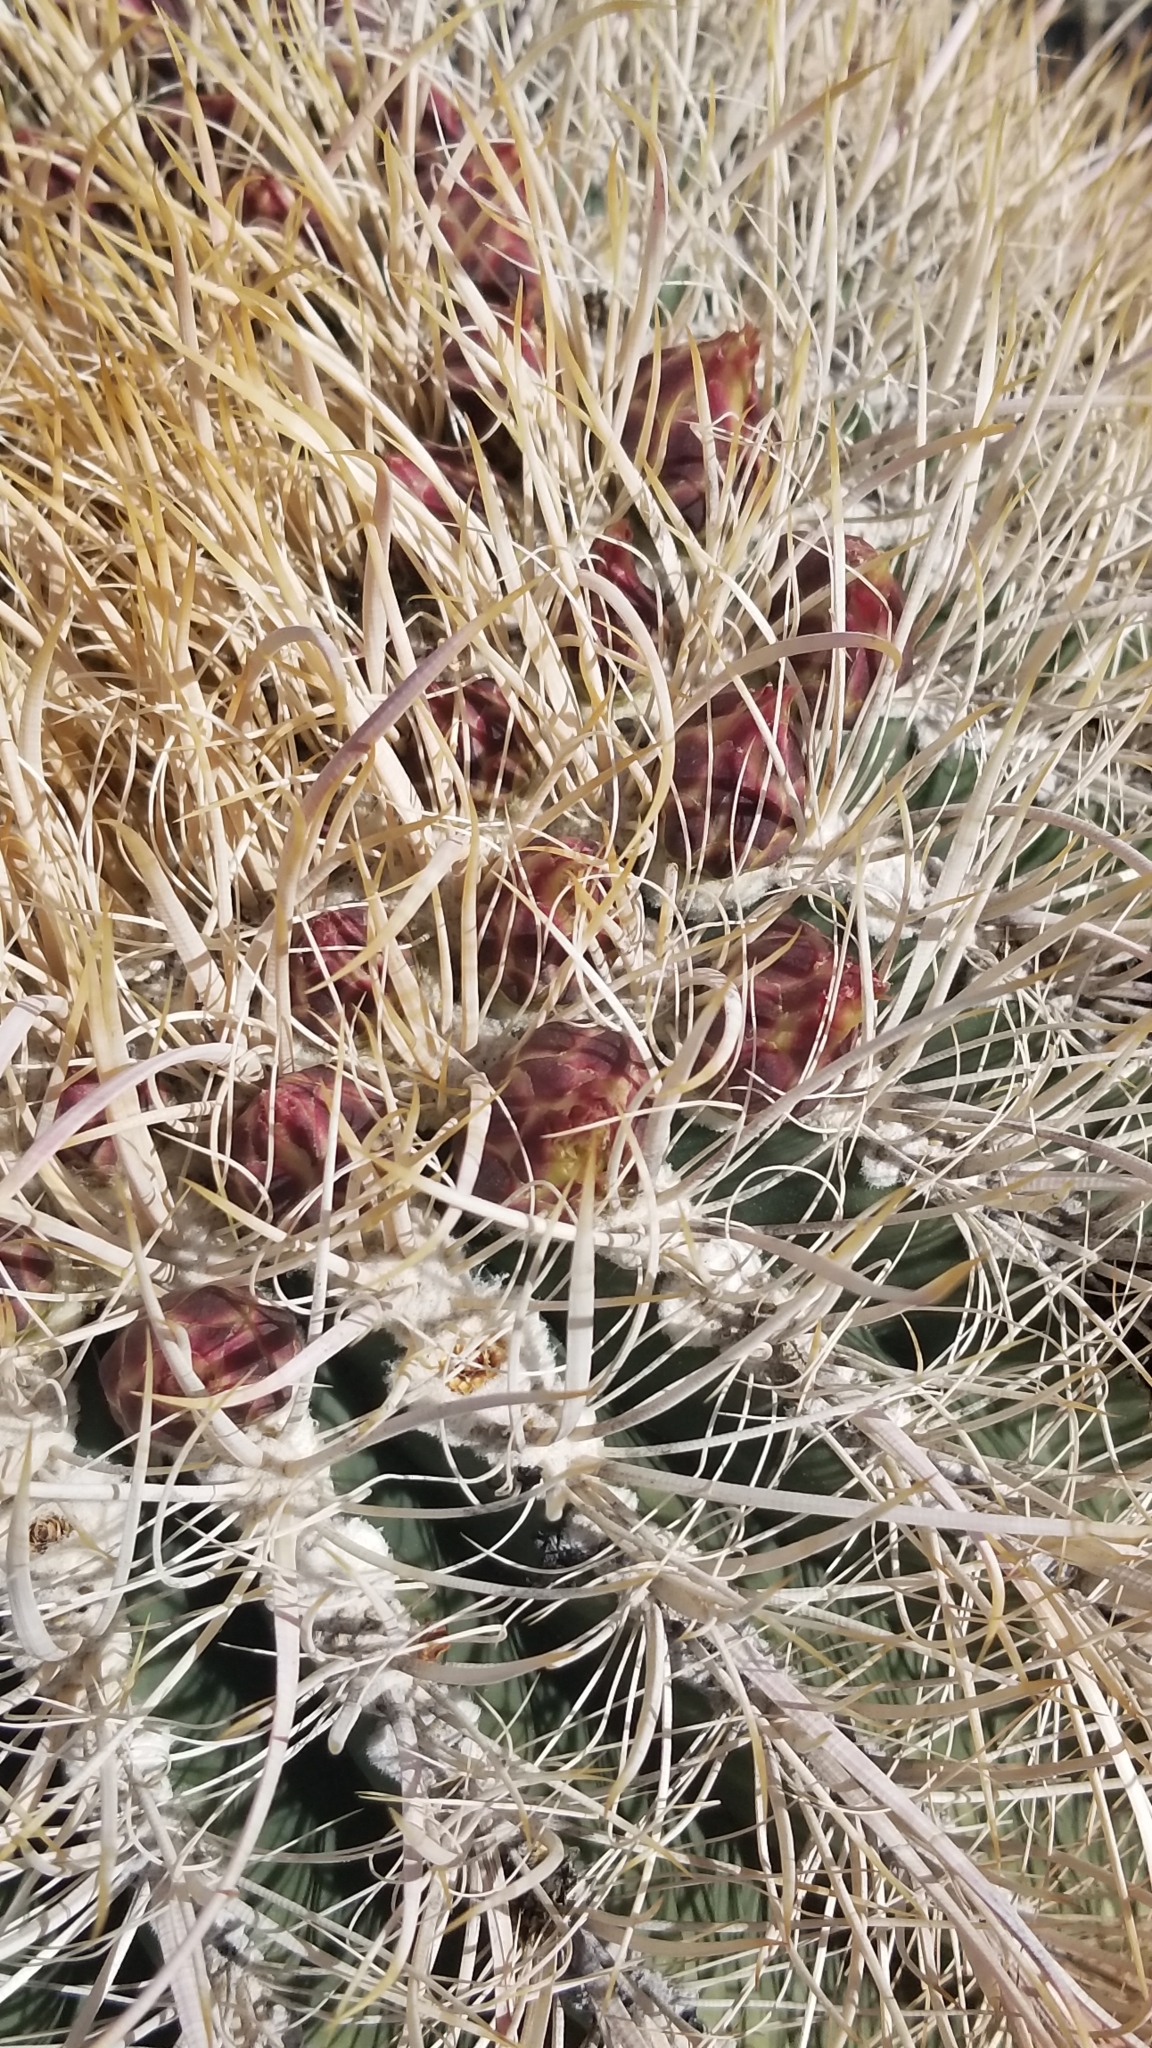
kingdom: Plantae
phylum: Tracheophyta
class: Magnoliopsida
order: Caryophyllales
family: Cactaceae
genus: Ferocactus
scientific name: Ferocactus cylindraceus
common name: California barrel cactus
